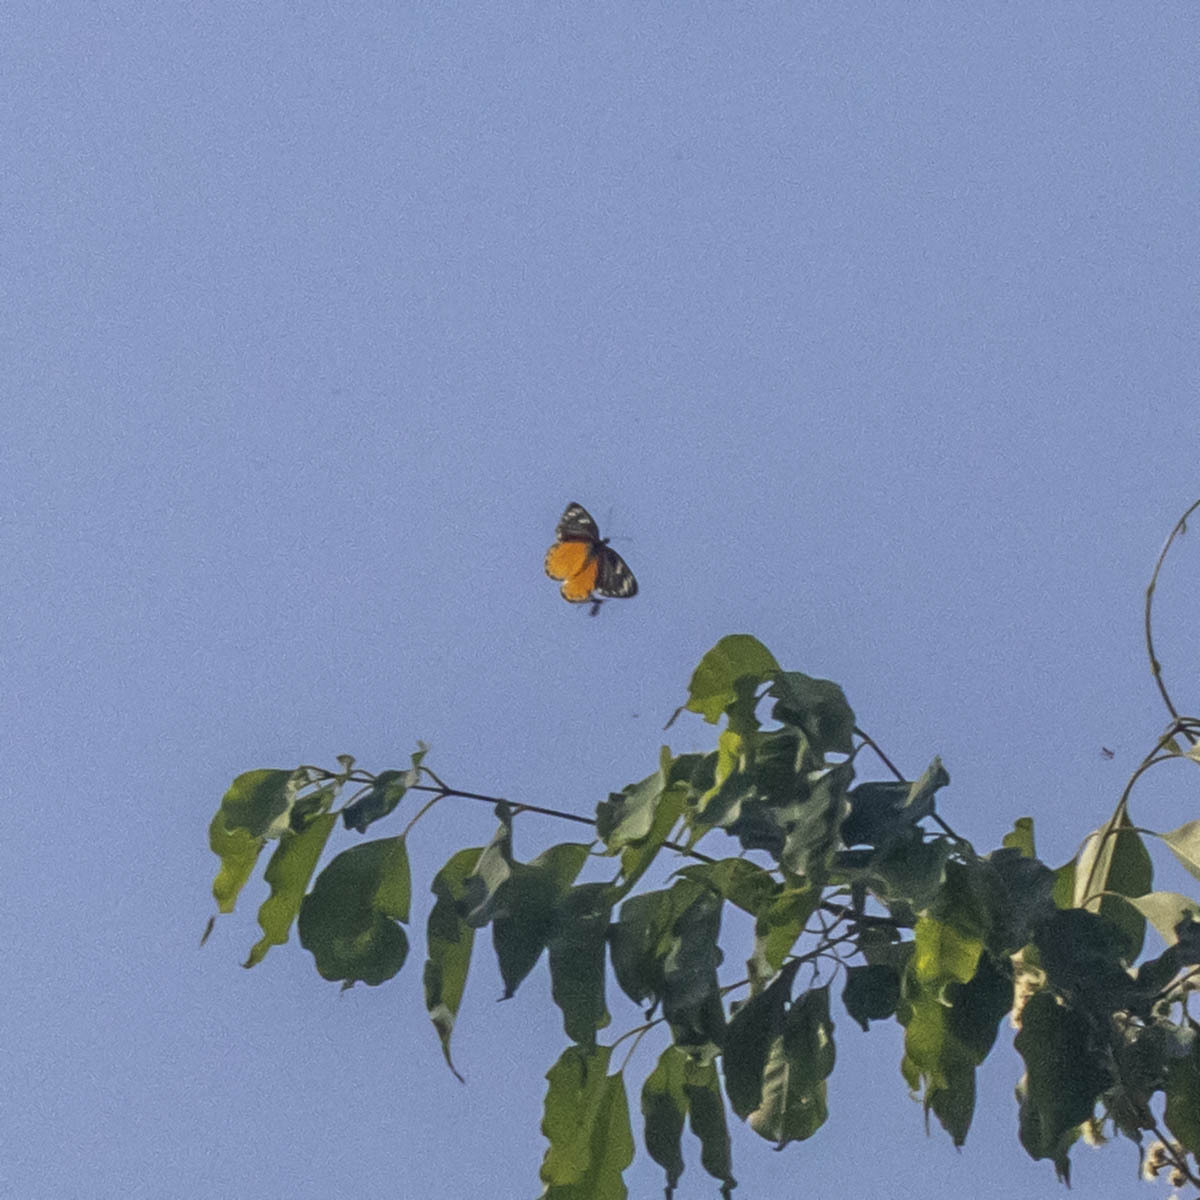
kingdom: Animalia
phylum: Arthropoda
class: Insecta
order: Lepidoptera
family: Pieridae
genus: Delias
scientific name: Delias descombesi
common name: Red-spot jezebel
